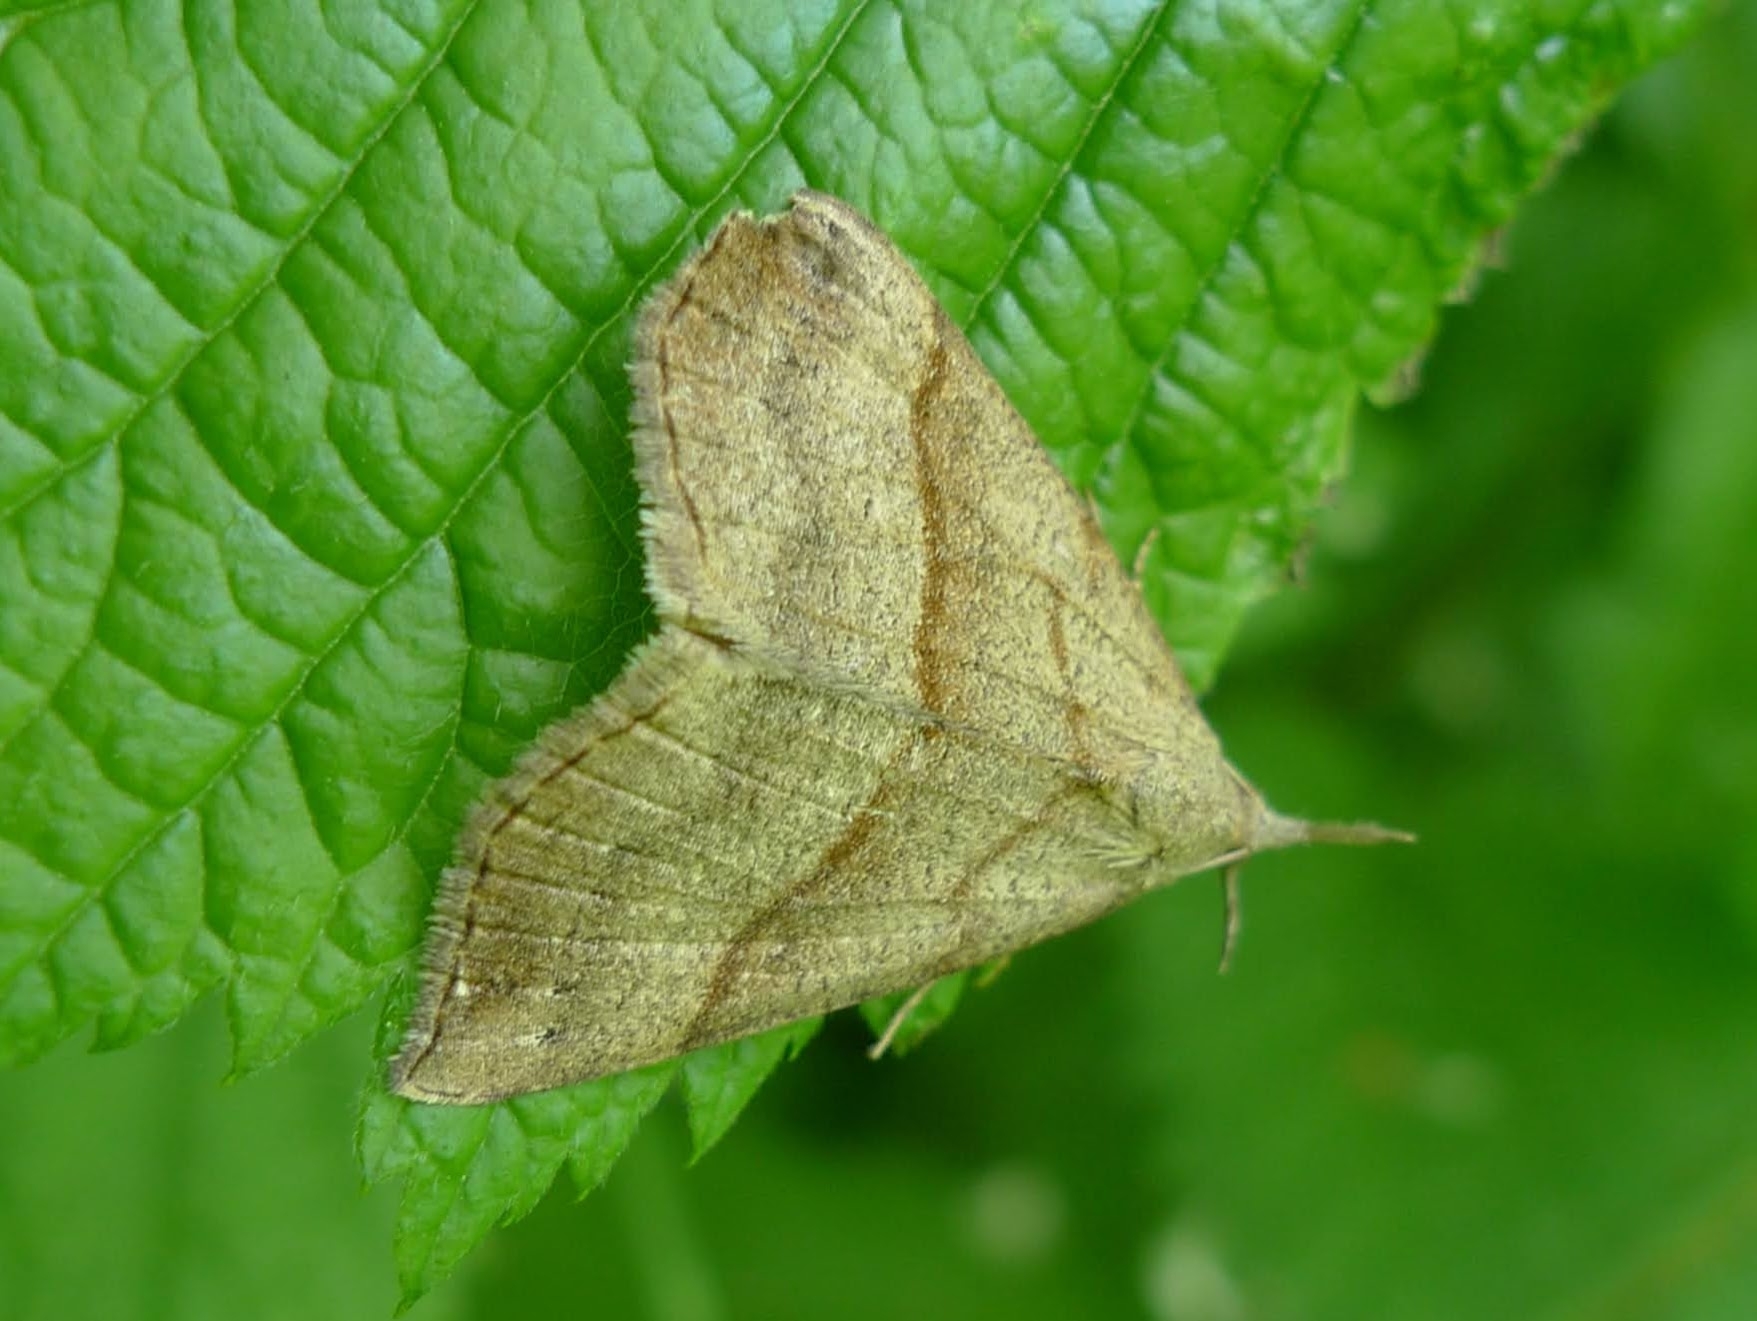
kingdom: Animalia
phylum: Arthropoda
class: Insecta
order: Lepidoptera
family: Erebidae
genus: Hypena
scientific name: Hypena proboscidalis
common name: Snout
